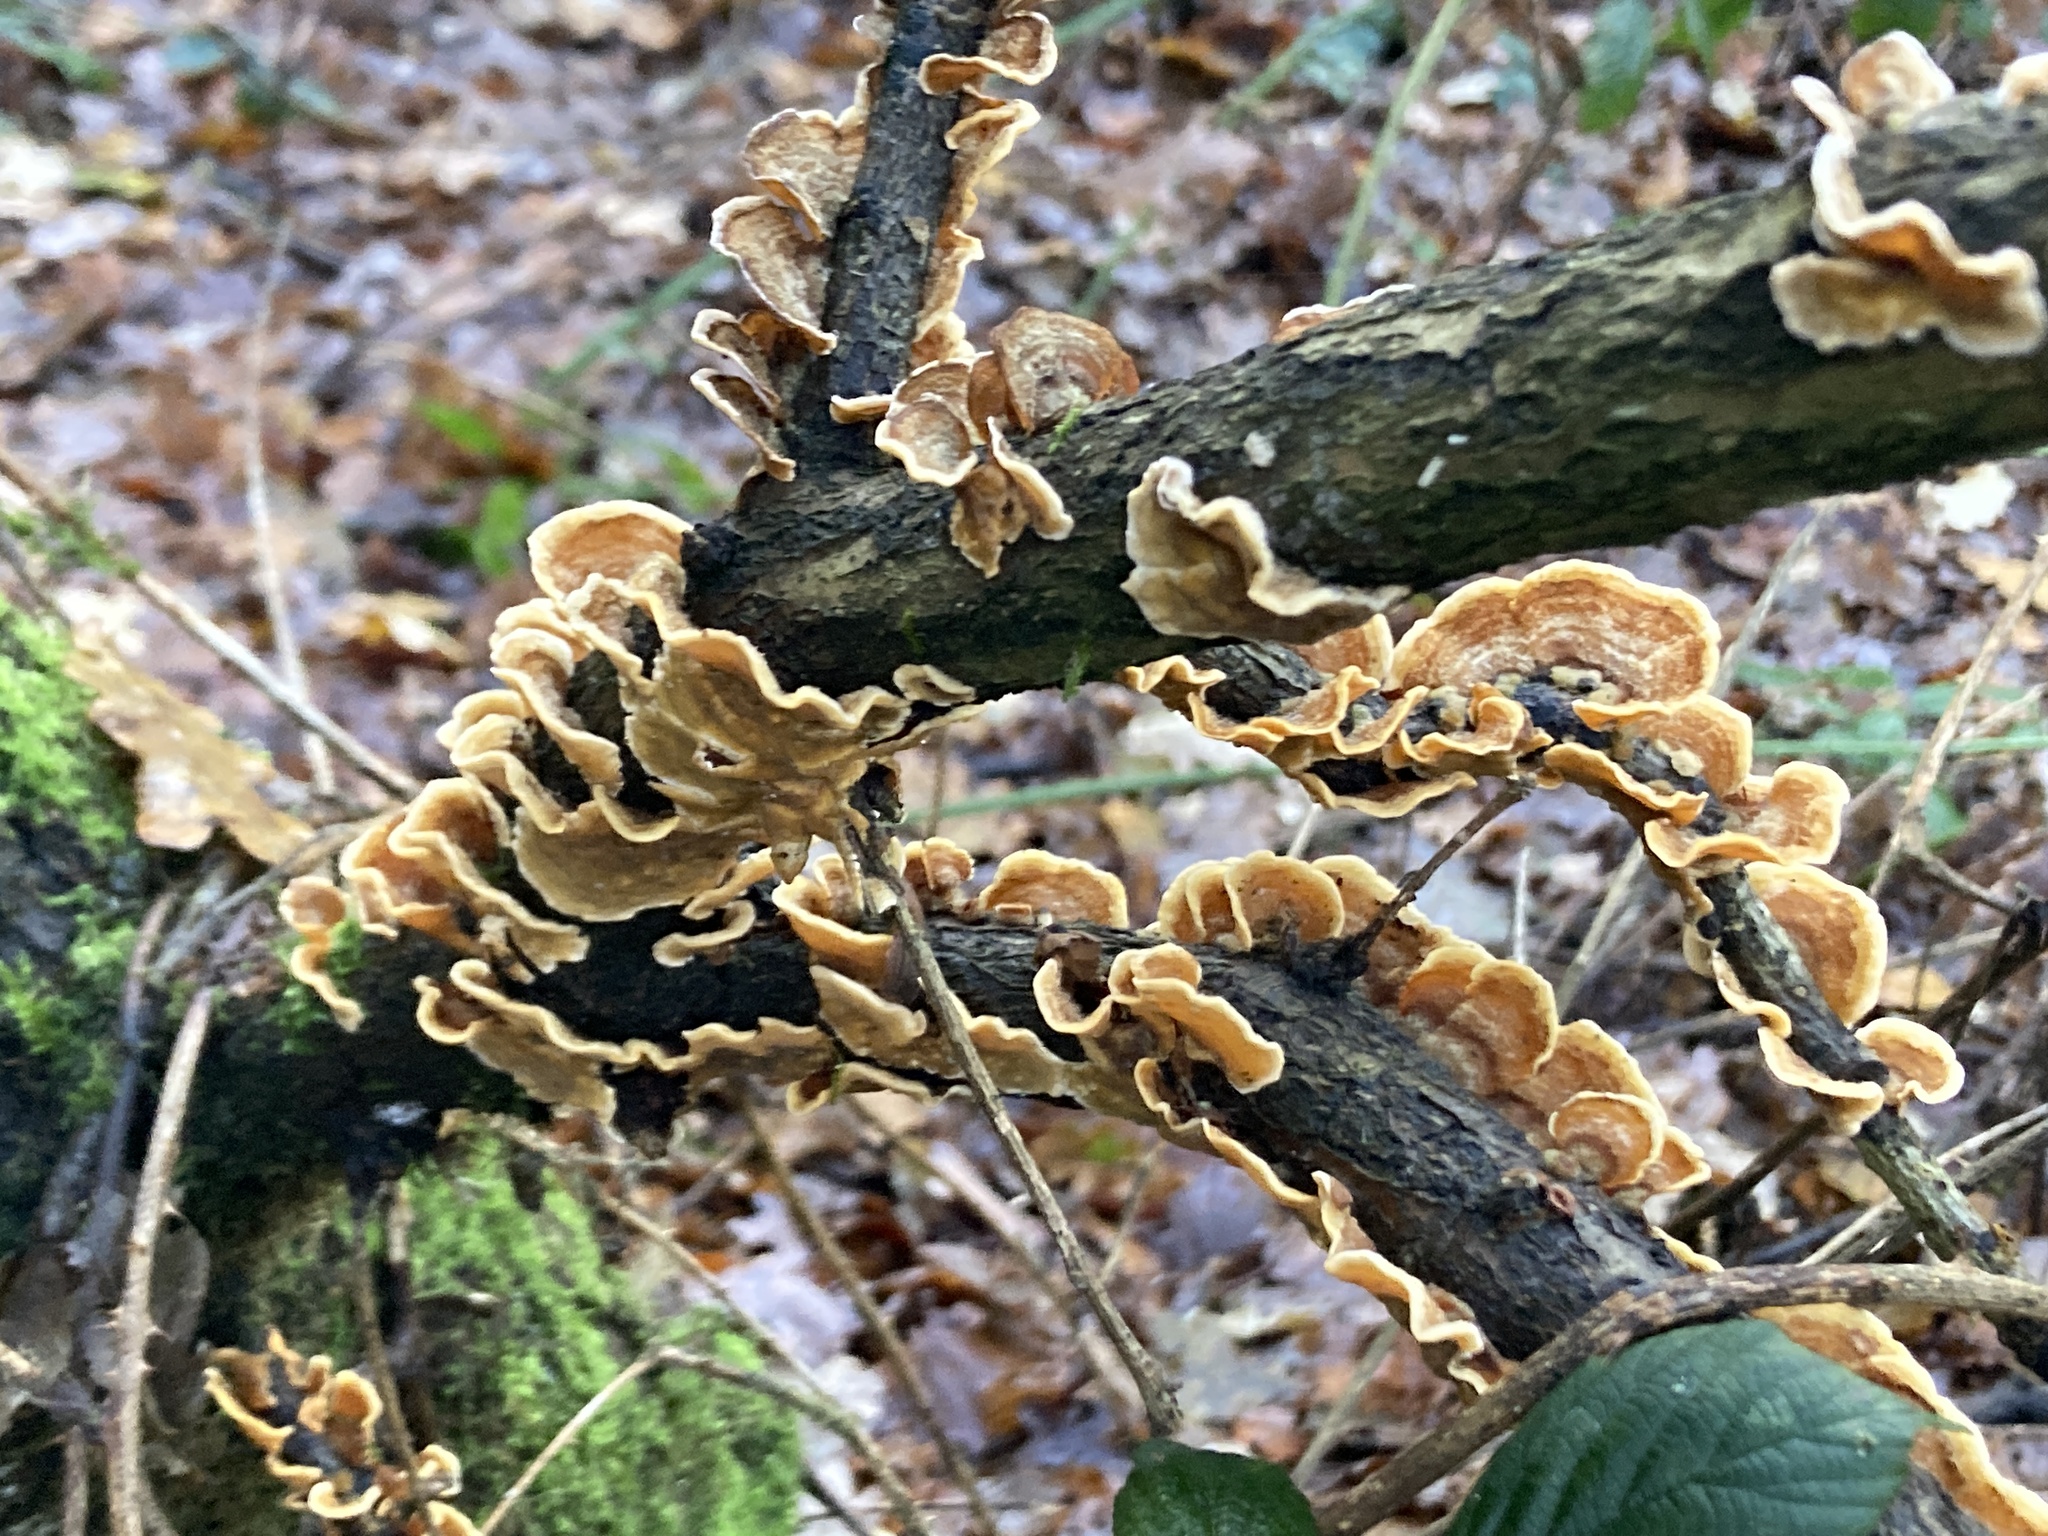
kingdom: Fungi
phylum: Basidiomycota
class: Agaricomycetes
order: Russulales
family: Stereaceae
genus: Stereum
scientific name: Stereum hirsutum
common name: Hairy curtain crust
